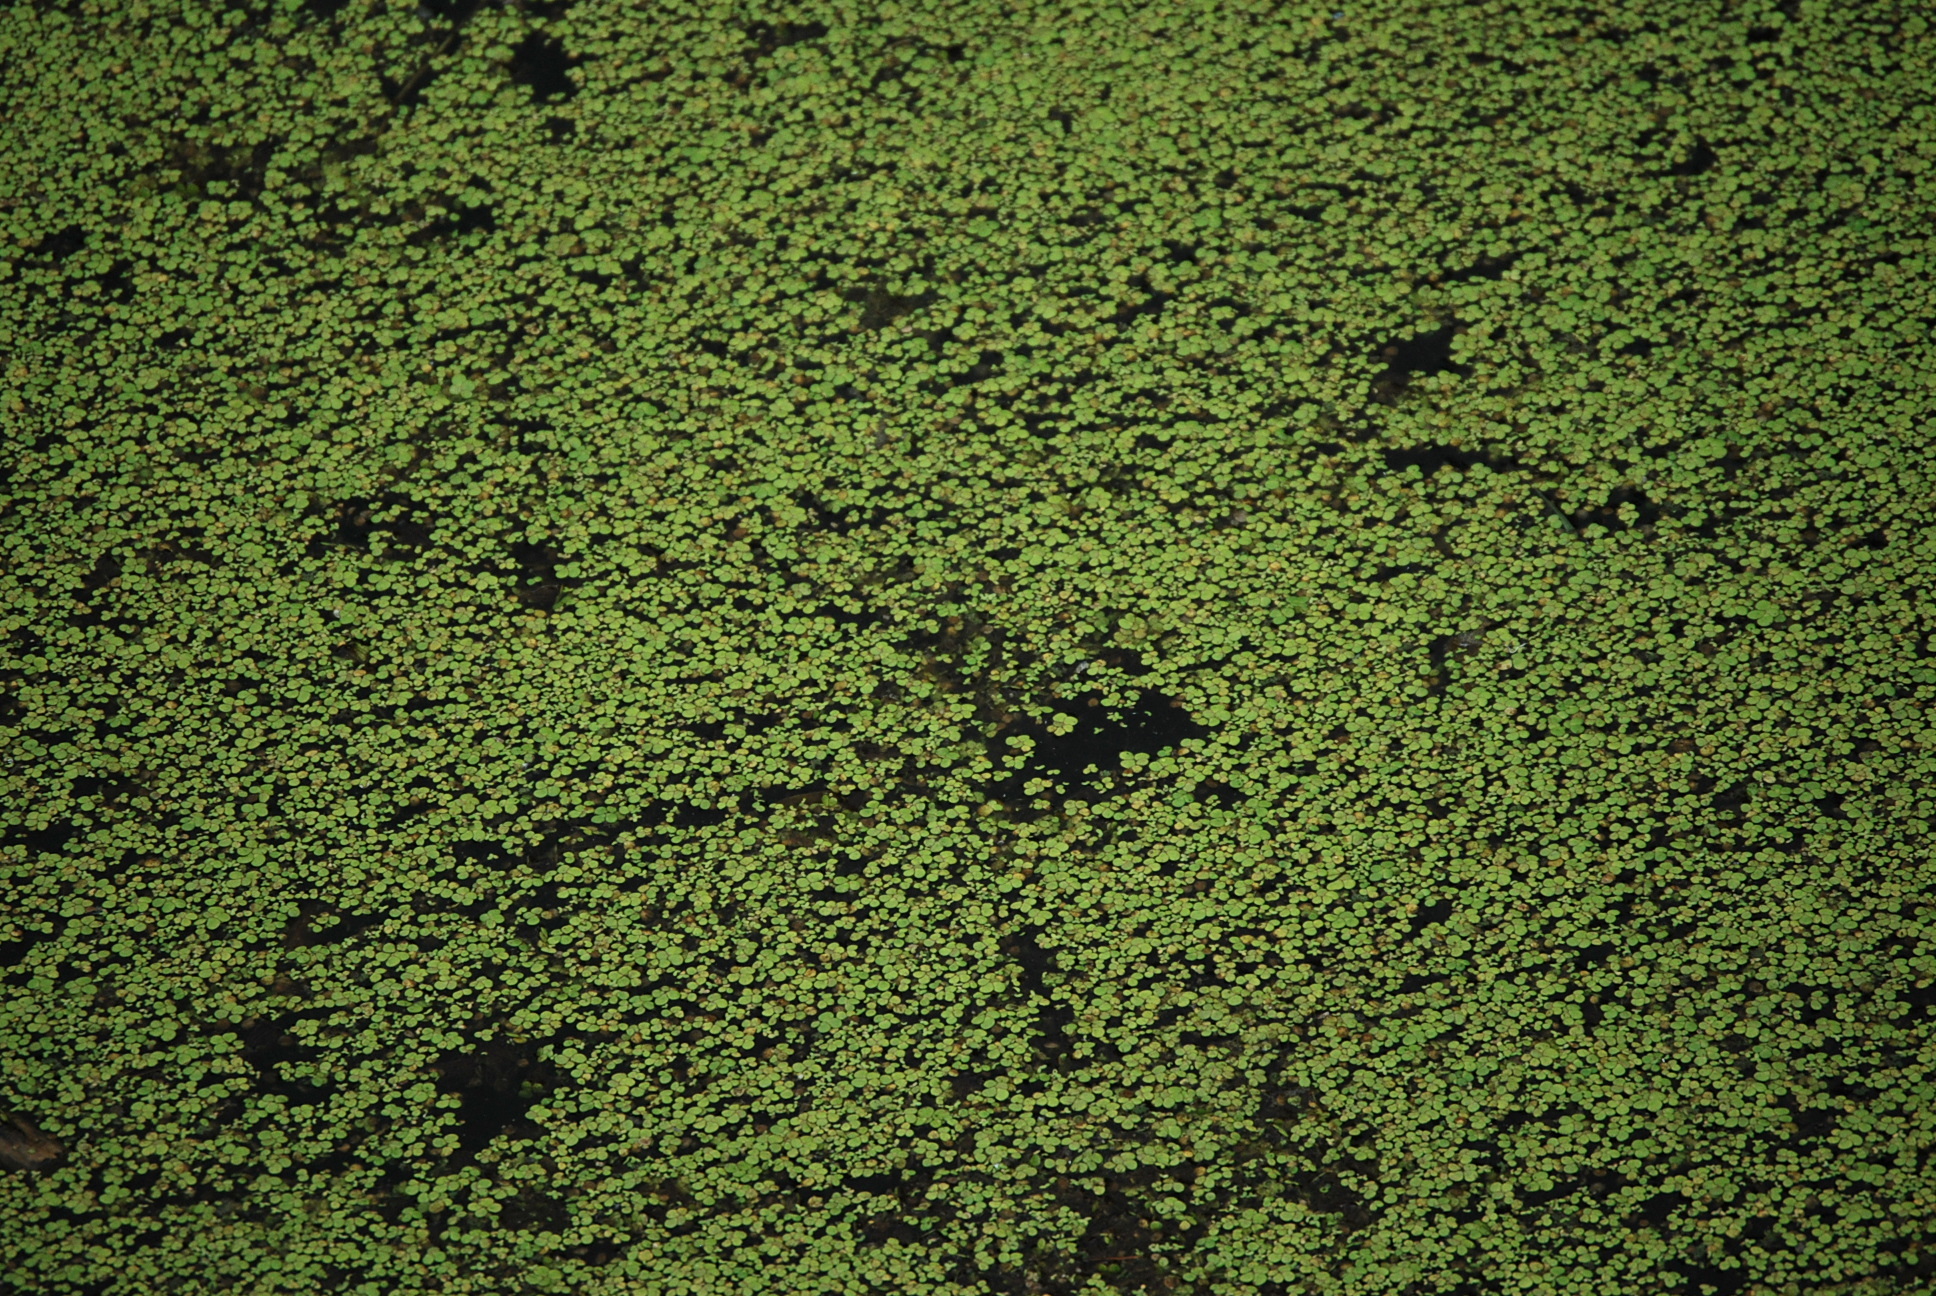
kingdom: Plantae
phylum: Tracheophyta
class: Liliopsida
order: Alismatales
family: Araceae
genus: Lemna
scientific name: Lemna minor
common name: Common duckweed
